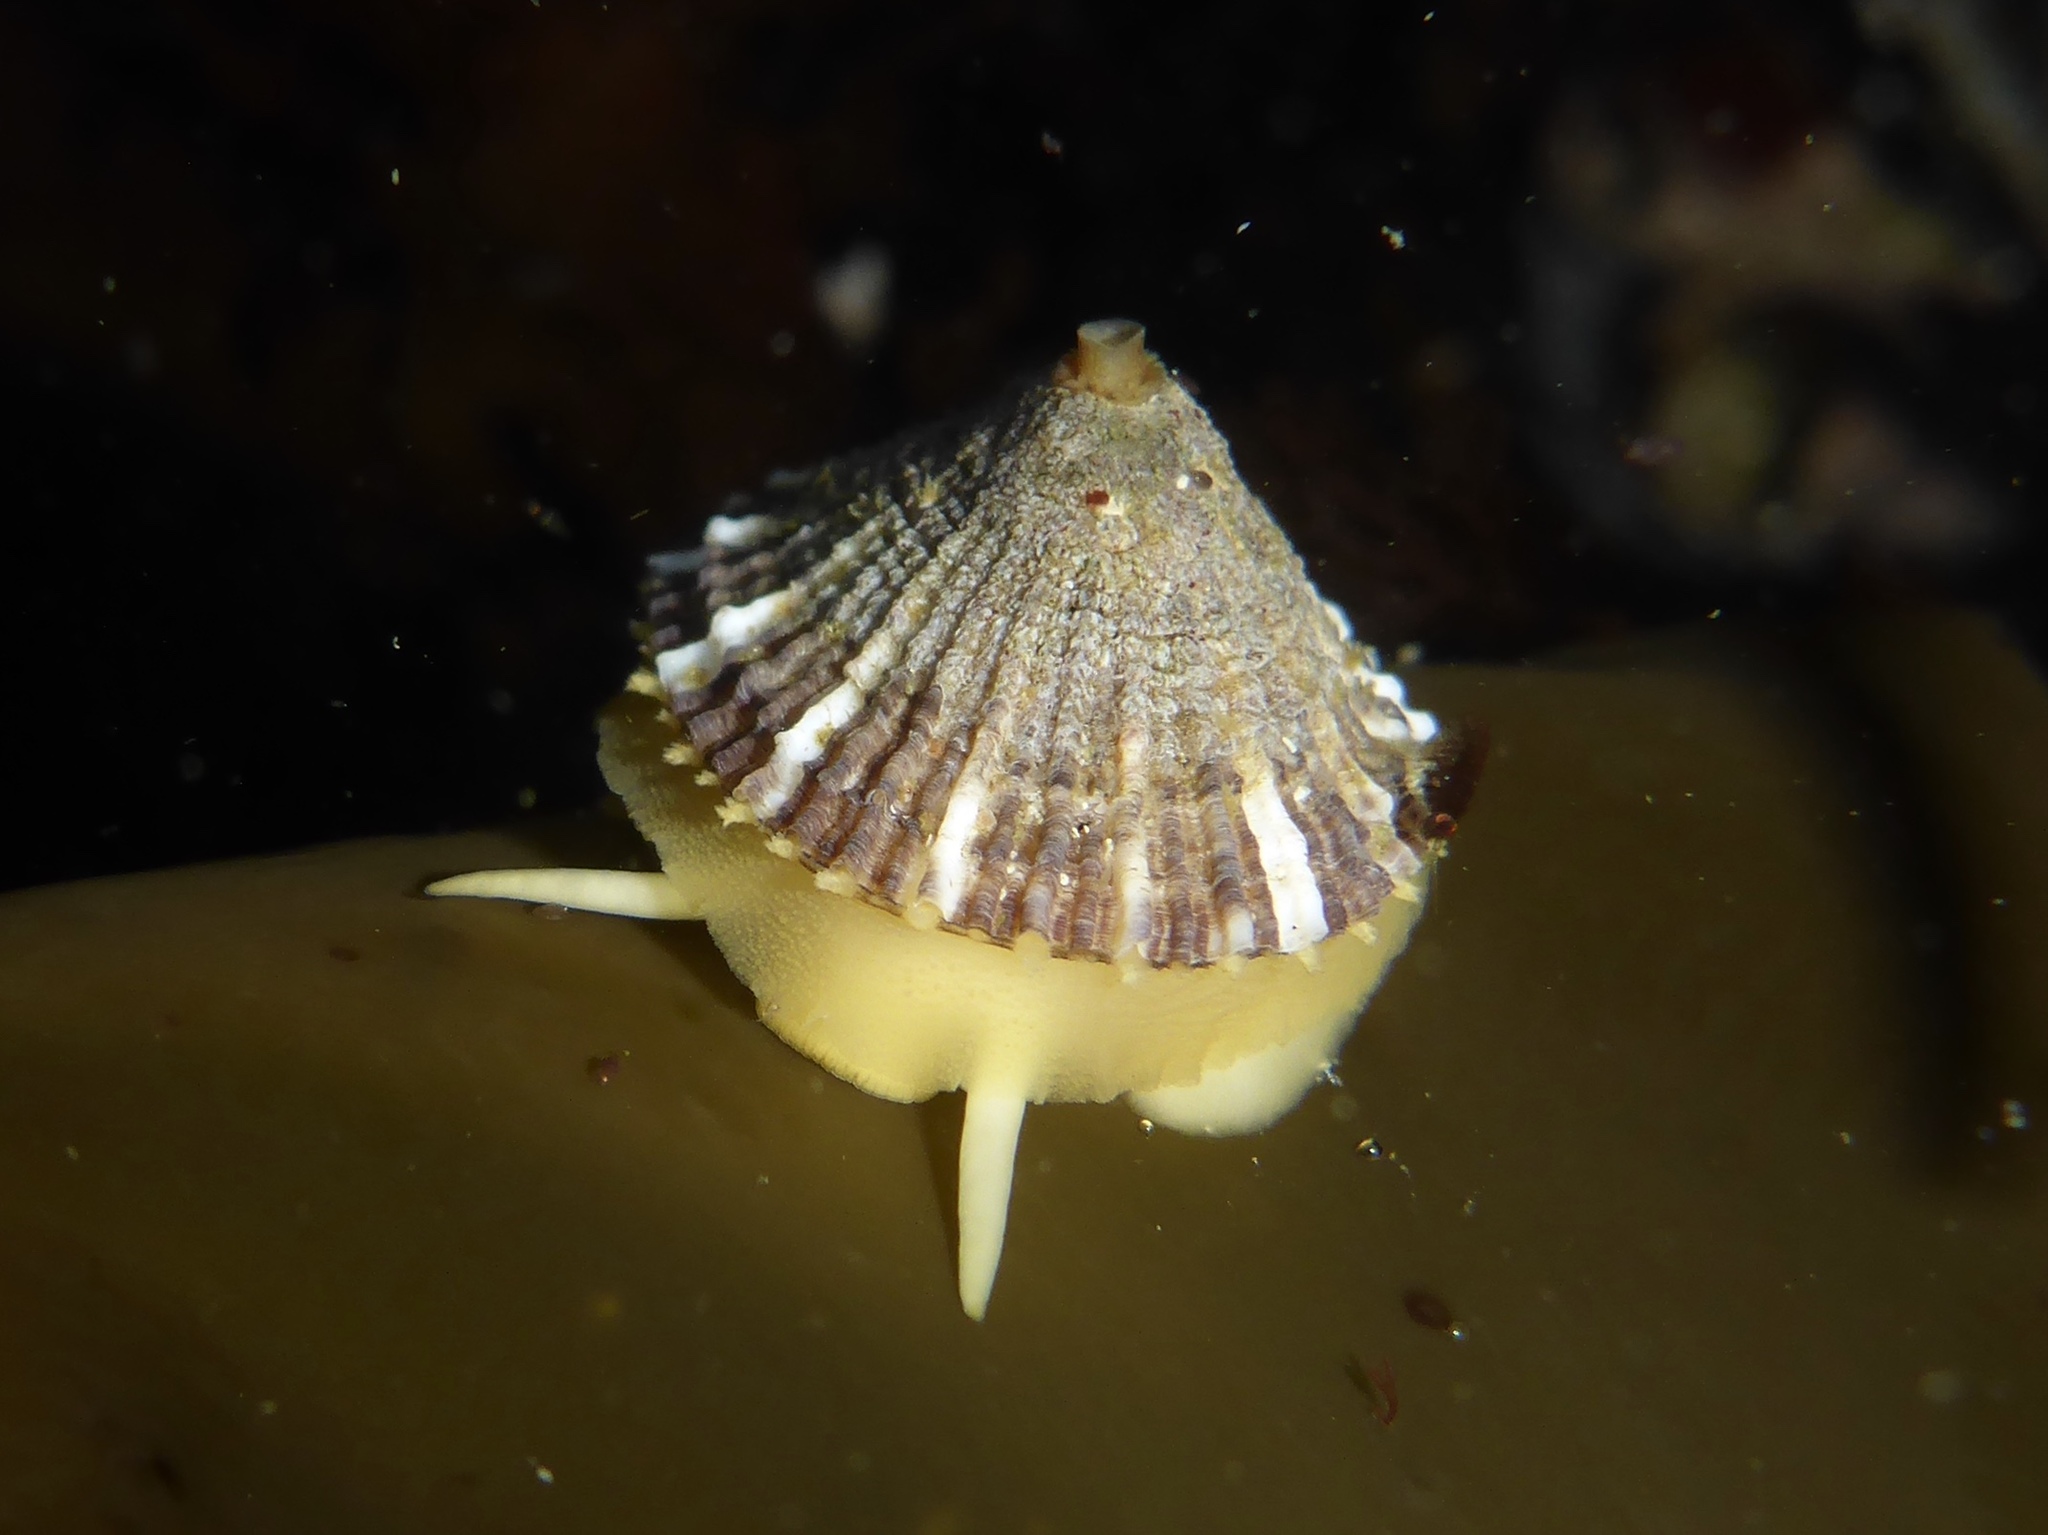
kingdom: Animalia
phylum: Mollusca
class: Gastropoda
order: Lepetellida
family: Fissurellidae
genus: Diodora
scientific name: Diodora aspera
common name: Rough keyhole limpet
